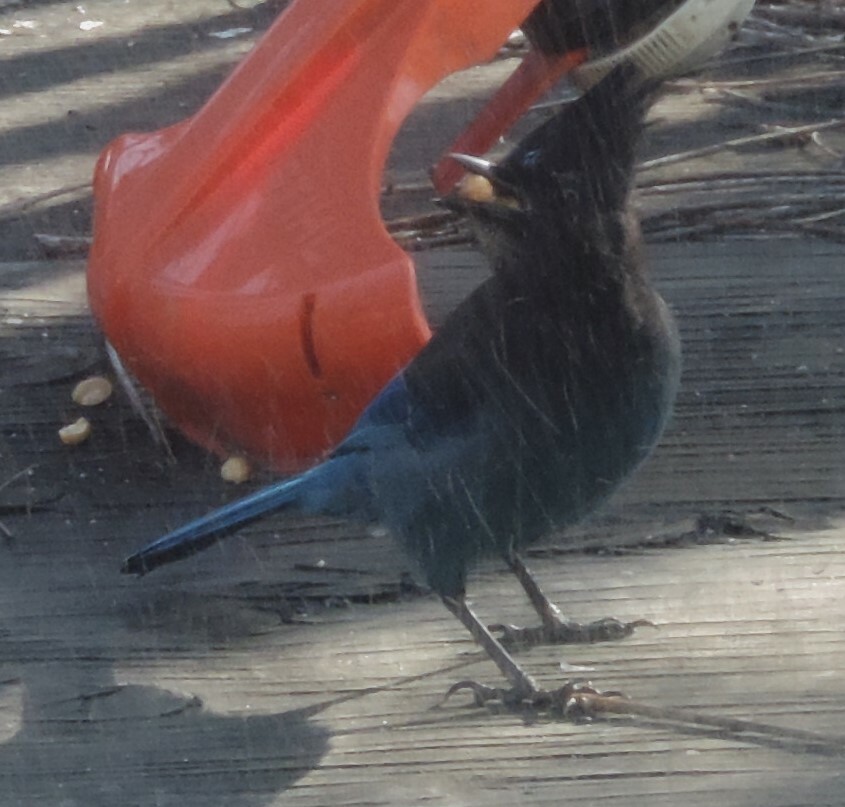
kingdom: Animalia
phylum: Chordata
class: Aves
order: Passeriformes
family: Corvidae
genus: Cyanocitta
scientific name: Cyanocitta stelleri
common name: Steller's jay
